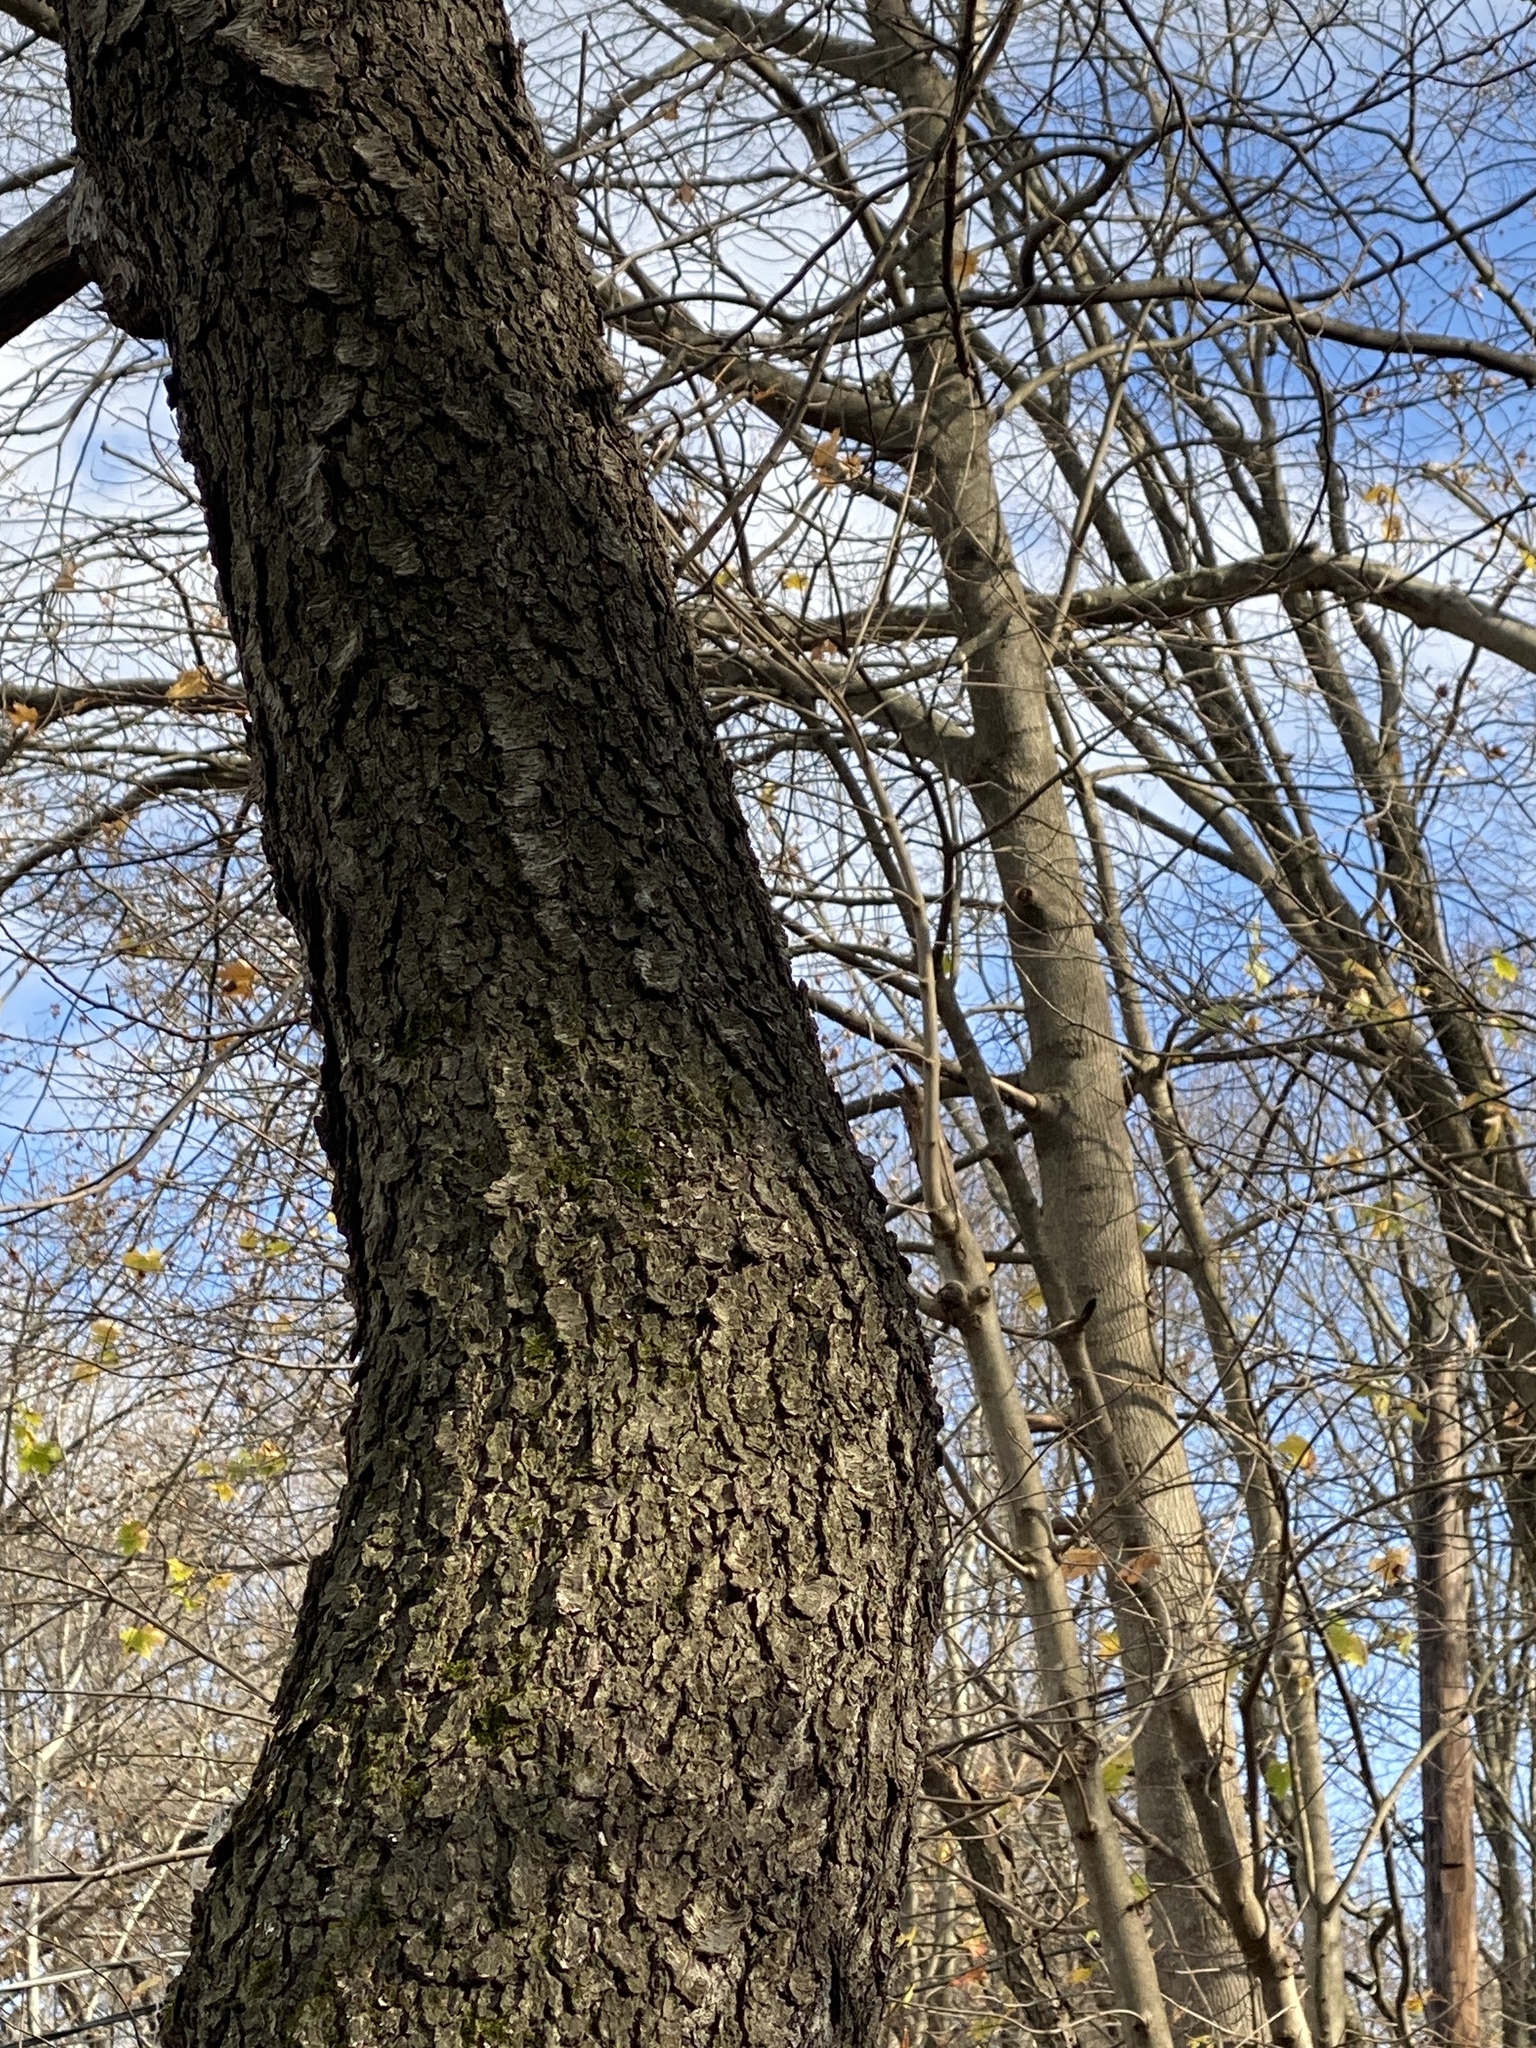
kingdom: Plantae
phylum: Tracheophyta
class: Magnoliopsida
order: Rosales
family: Rosaceae
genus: Prunus
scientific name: Prunus serotina
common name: Black cherry
